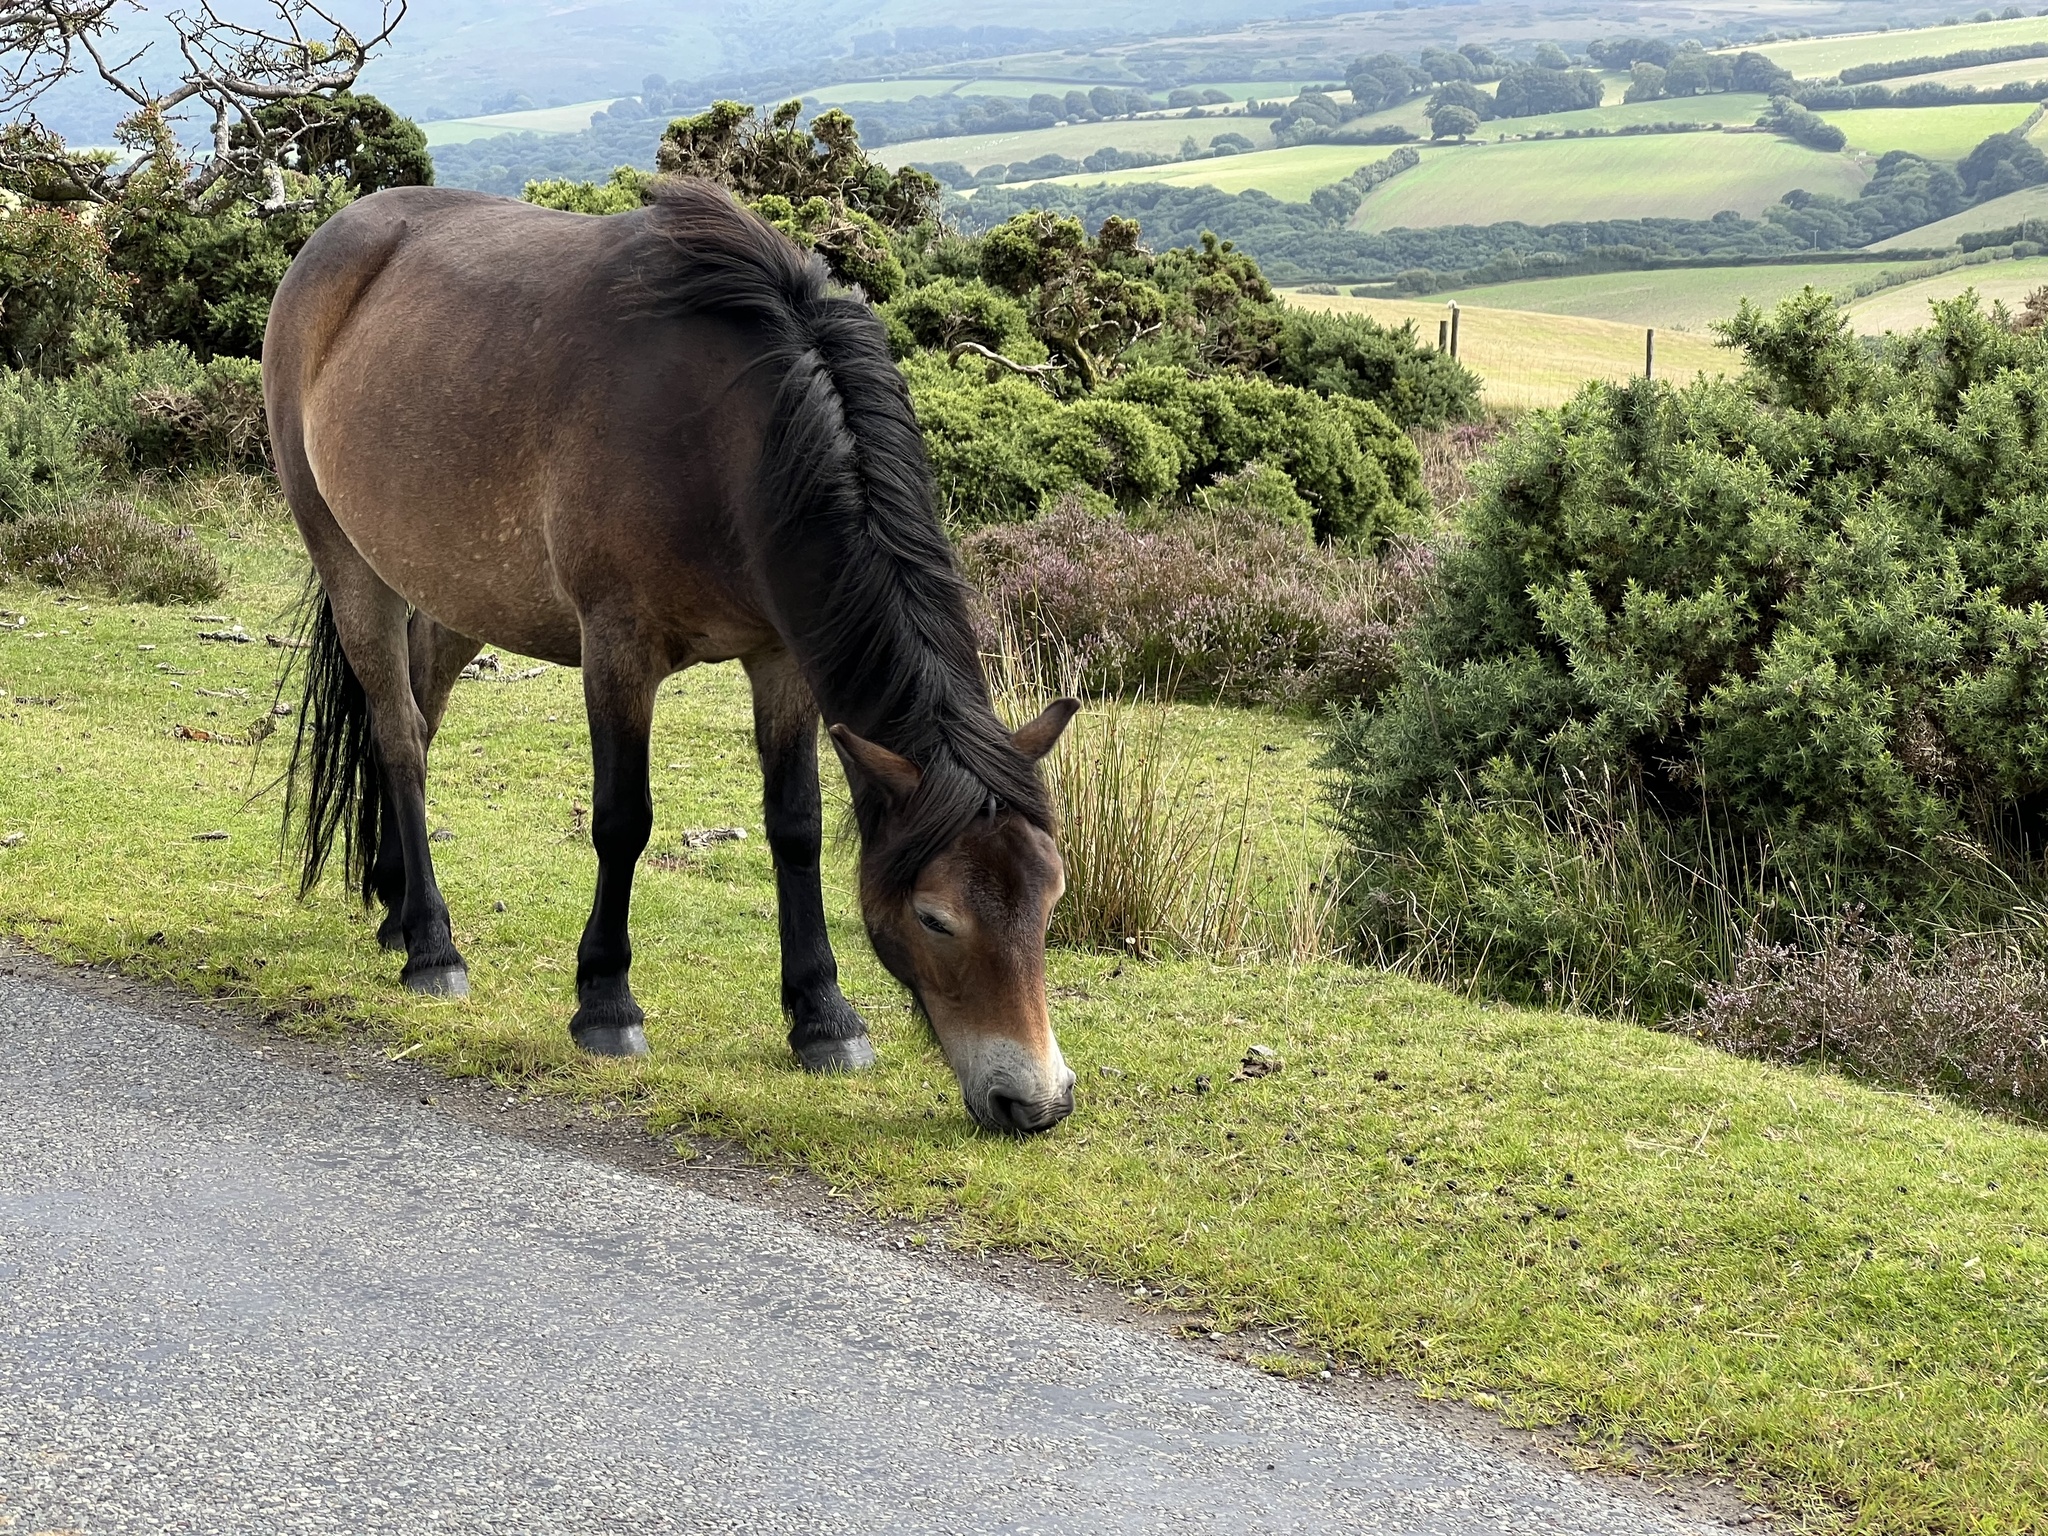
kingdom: Animalia
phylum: Chordata
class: Mammalia
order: Perissodactyla
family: Equidae
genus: Equus
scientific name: Equus caballus
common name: Horse
